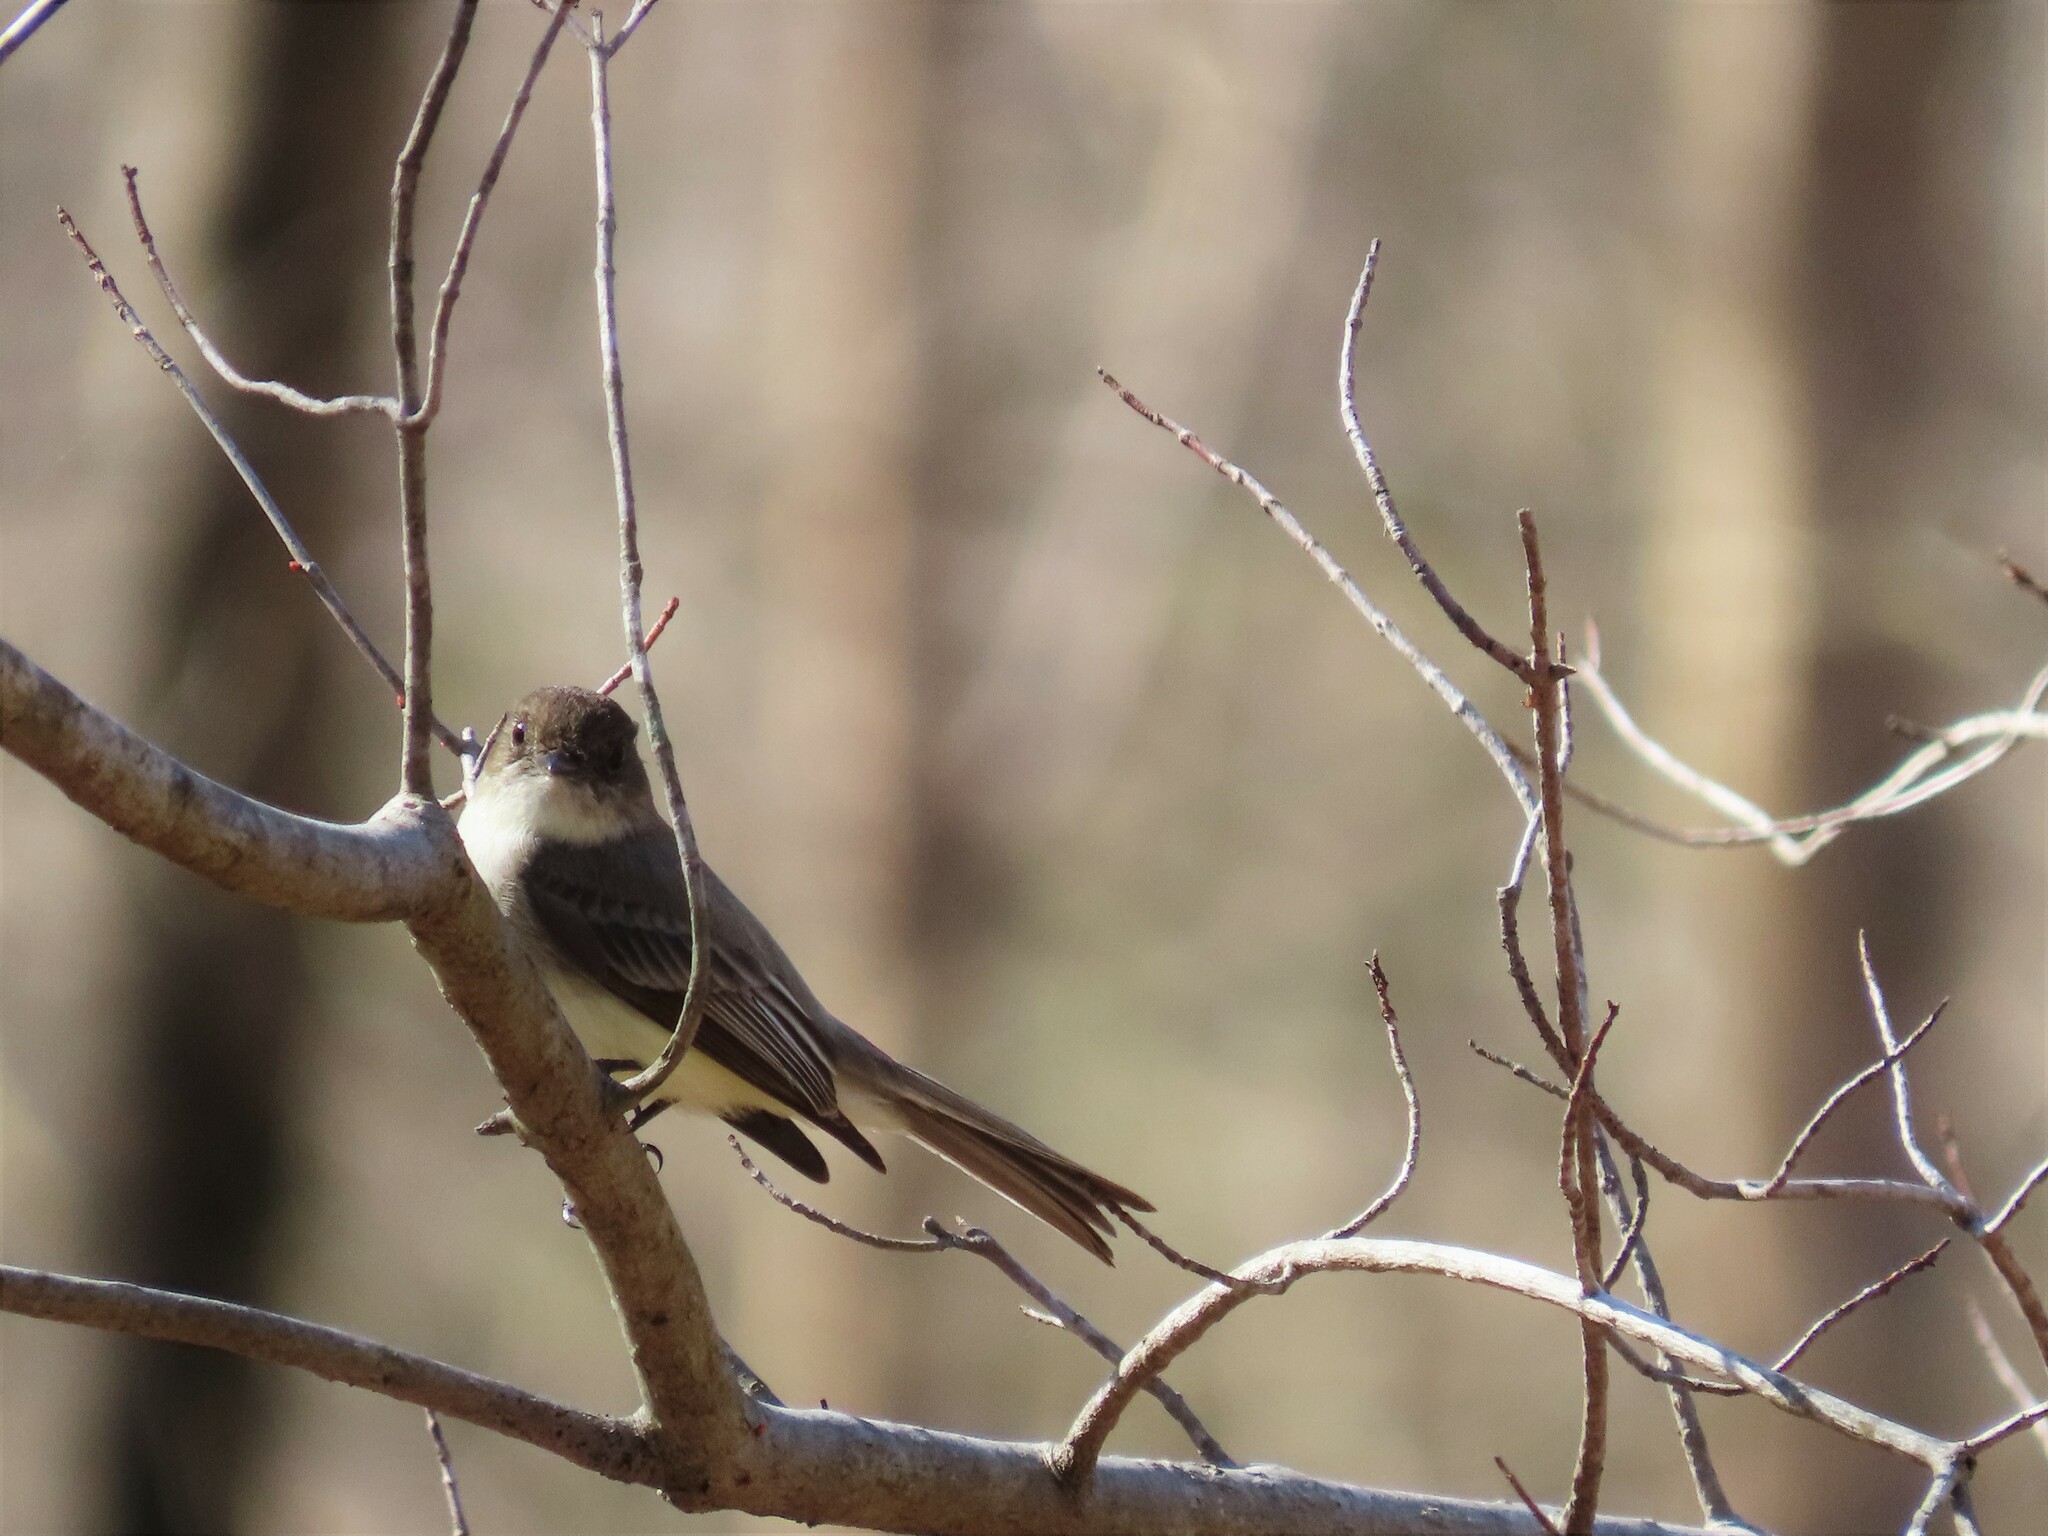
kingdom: Animalia
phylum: Chordata
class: Aves
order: Passeriformes
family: Tyrannidae
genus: Sayornis
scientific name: Sayornis phoebe
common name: Eastern phoebe
